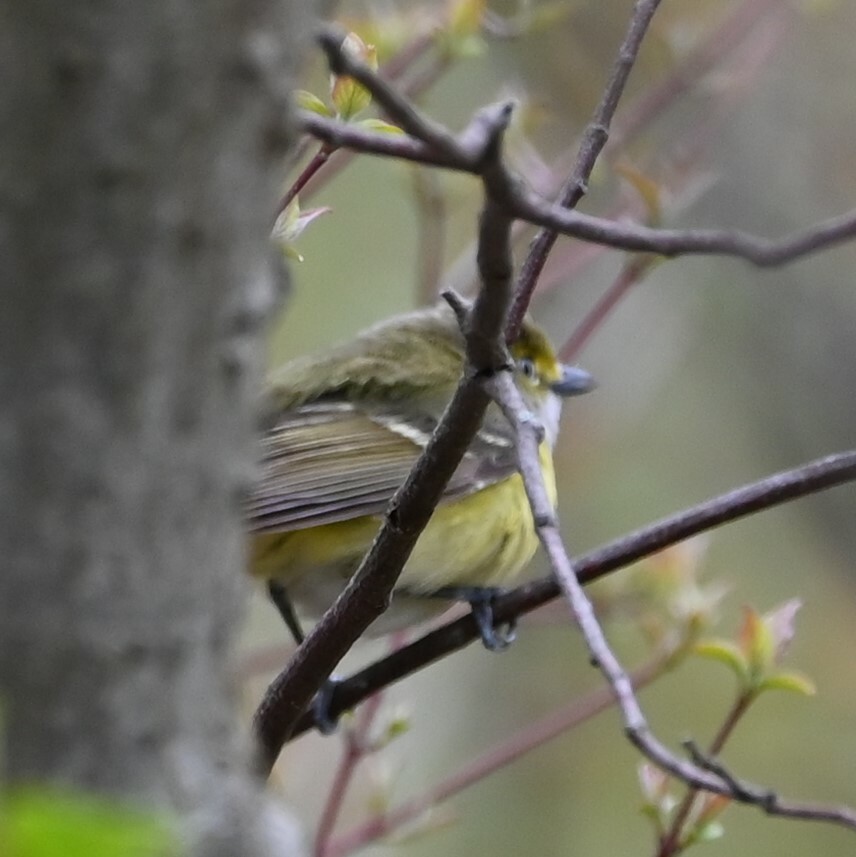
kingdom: Animalia
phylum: Chordata
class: Aves
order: Passeriformes
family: Vireonidae
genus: Vireo
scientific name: Vireo griseus
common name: White-eyed vireo
